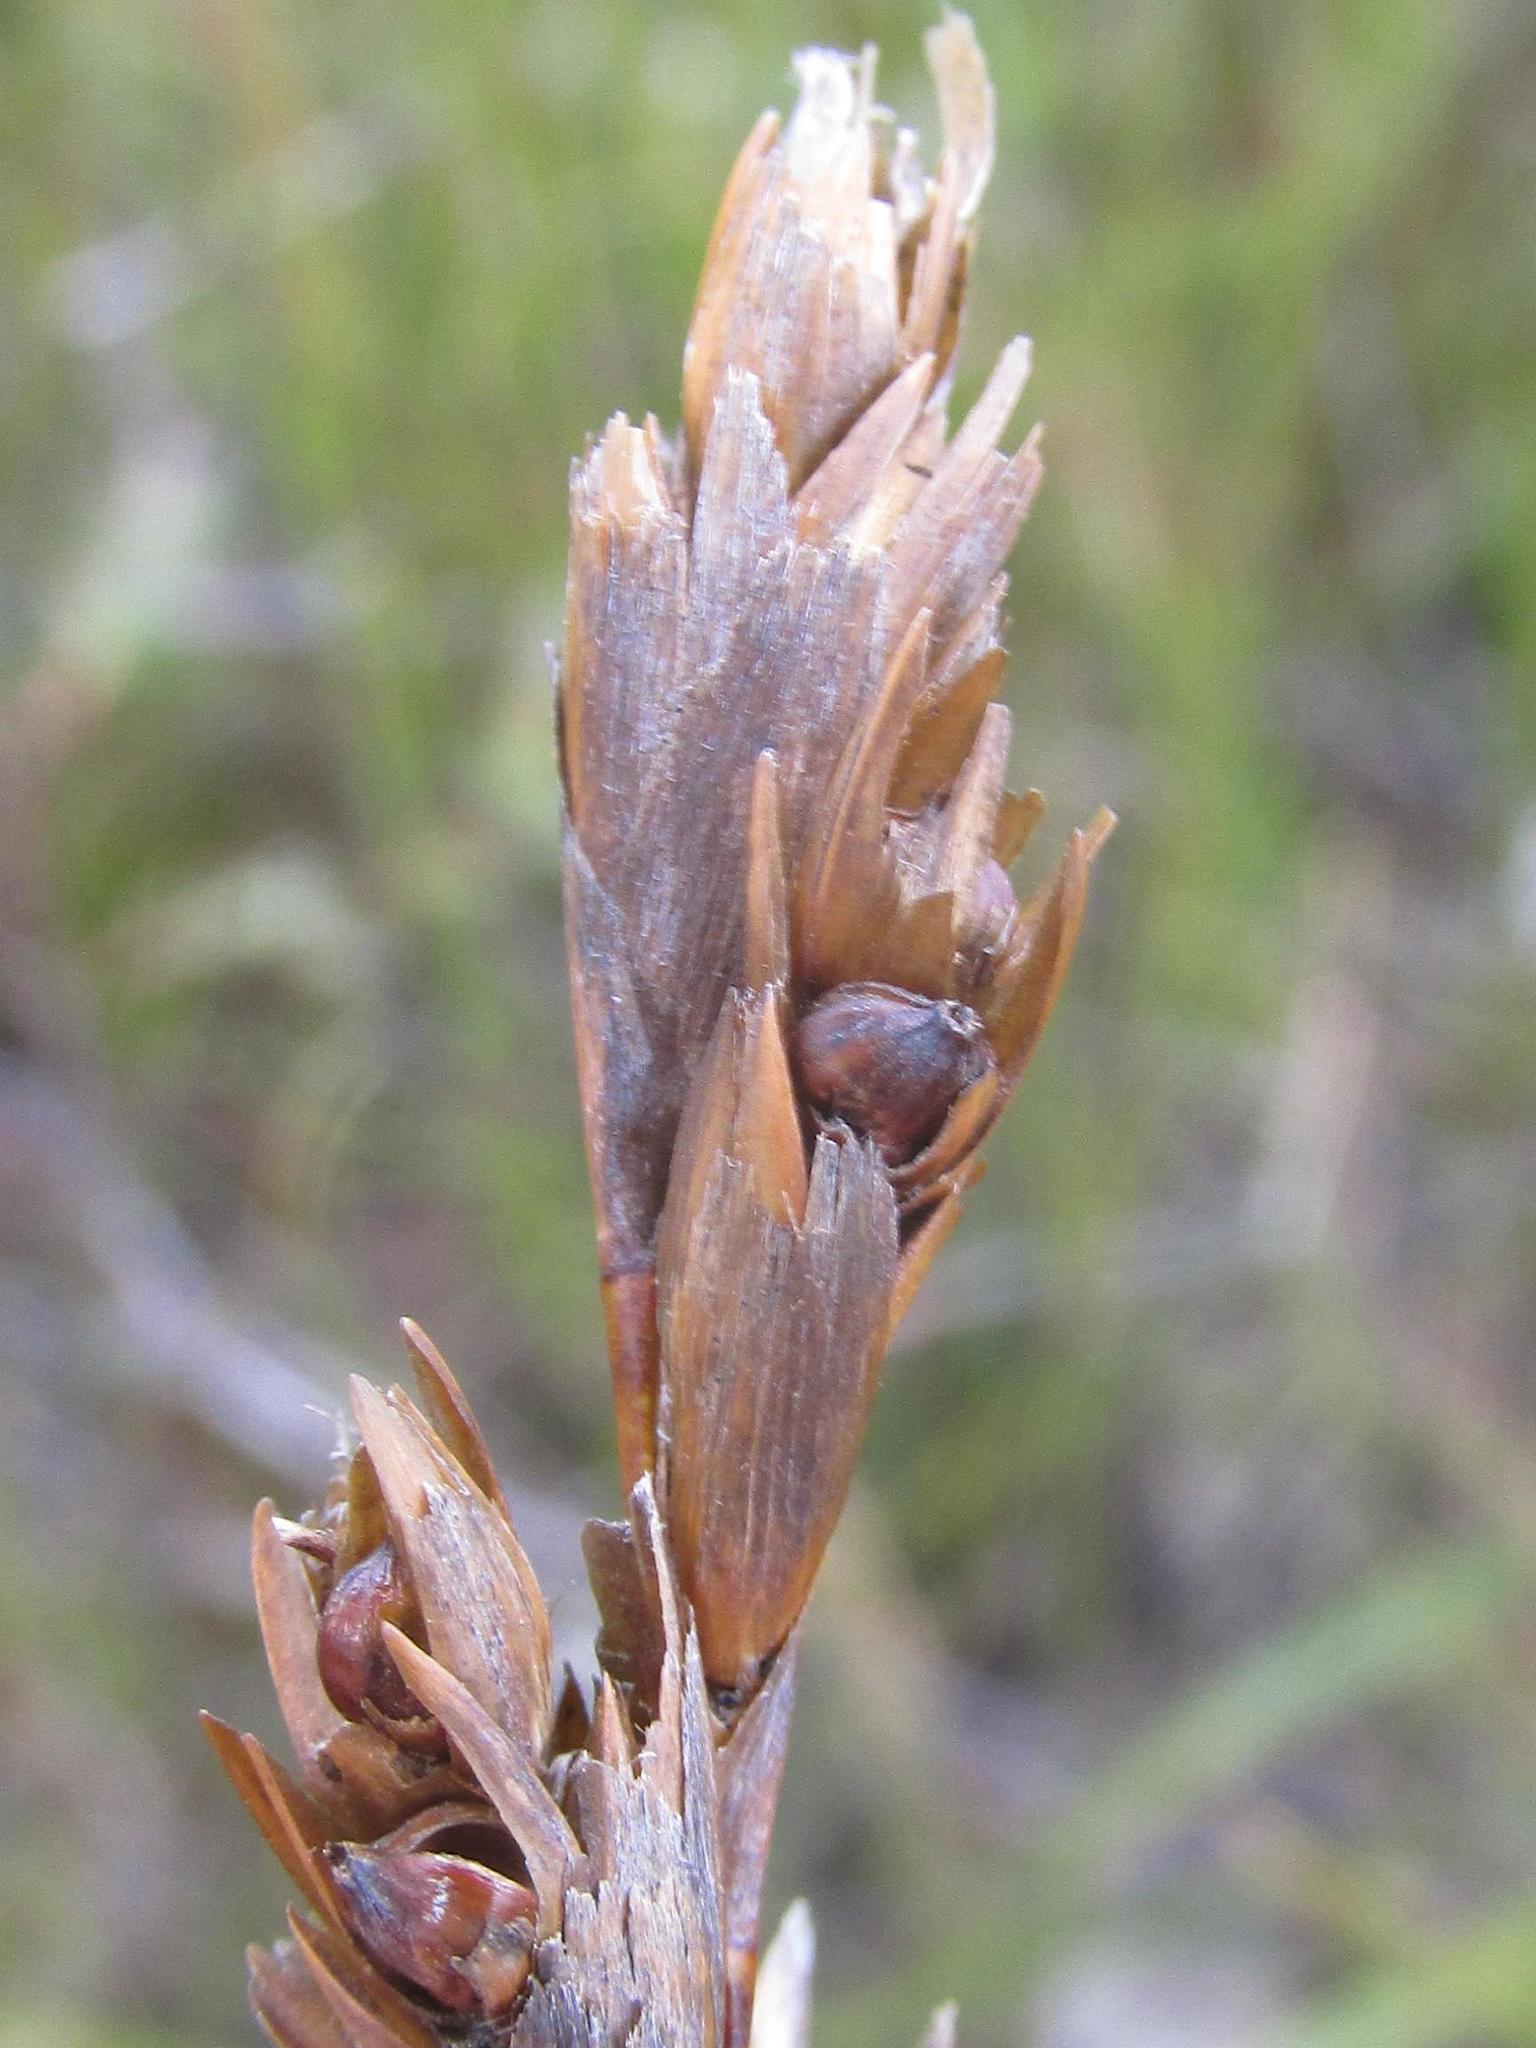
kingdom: Plantae
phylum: Tracheophyta
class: Liliopsida
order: Poales
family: Restionaceae
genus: Restio
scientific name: Restio vallis-simius
